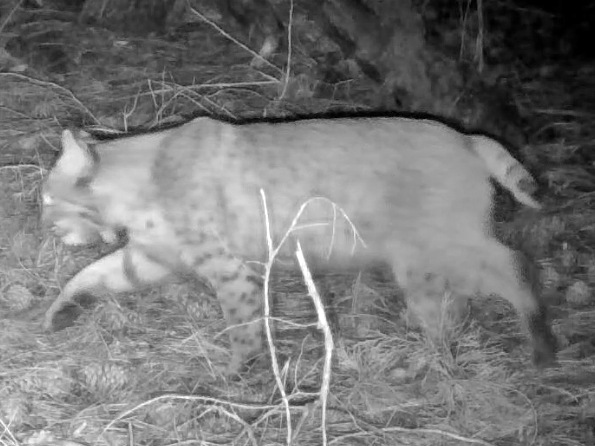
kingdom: Animalia
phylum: Chordata
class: Mammalia
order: Carnivora
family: Felidae
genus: Lynx
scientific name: Lynx rufus
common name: Bobcat
